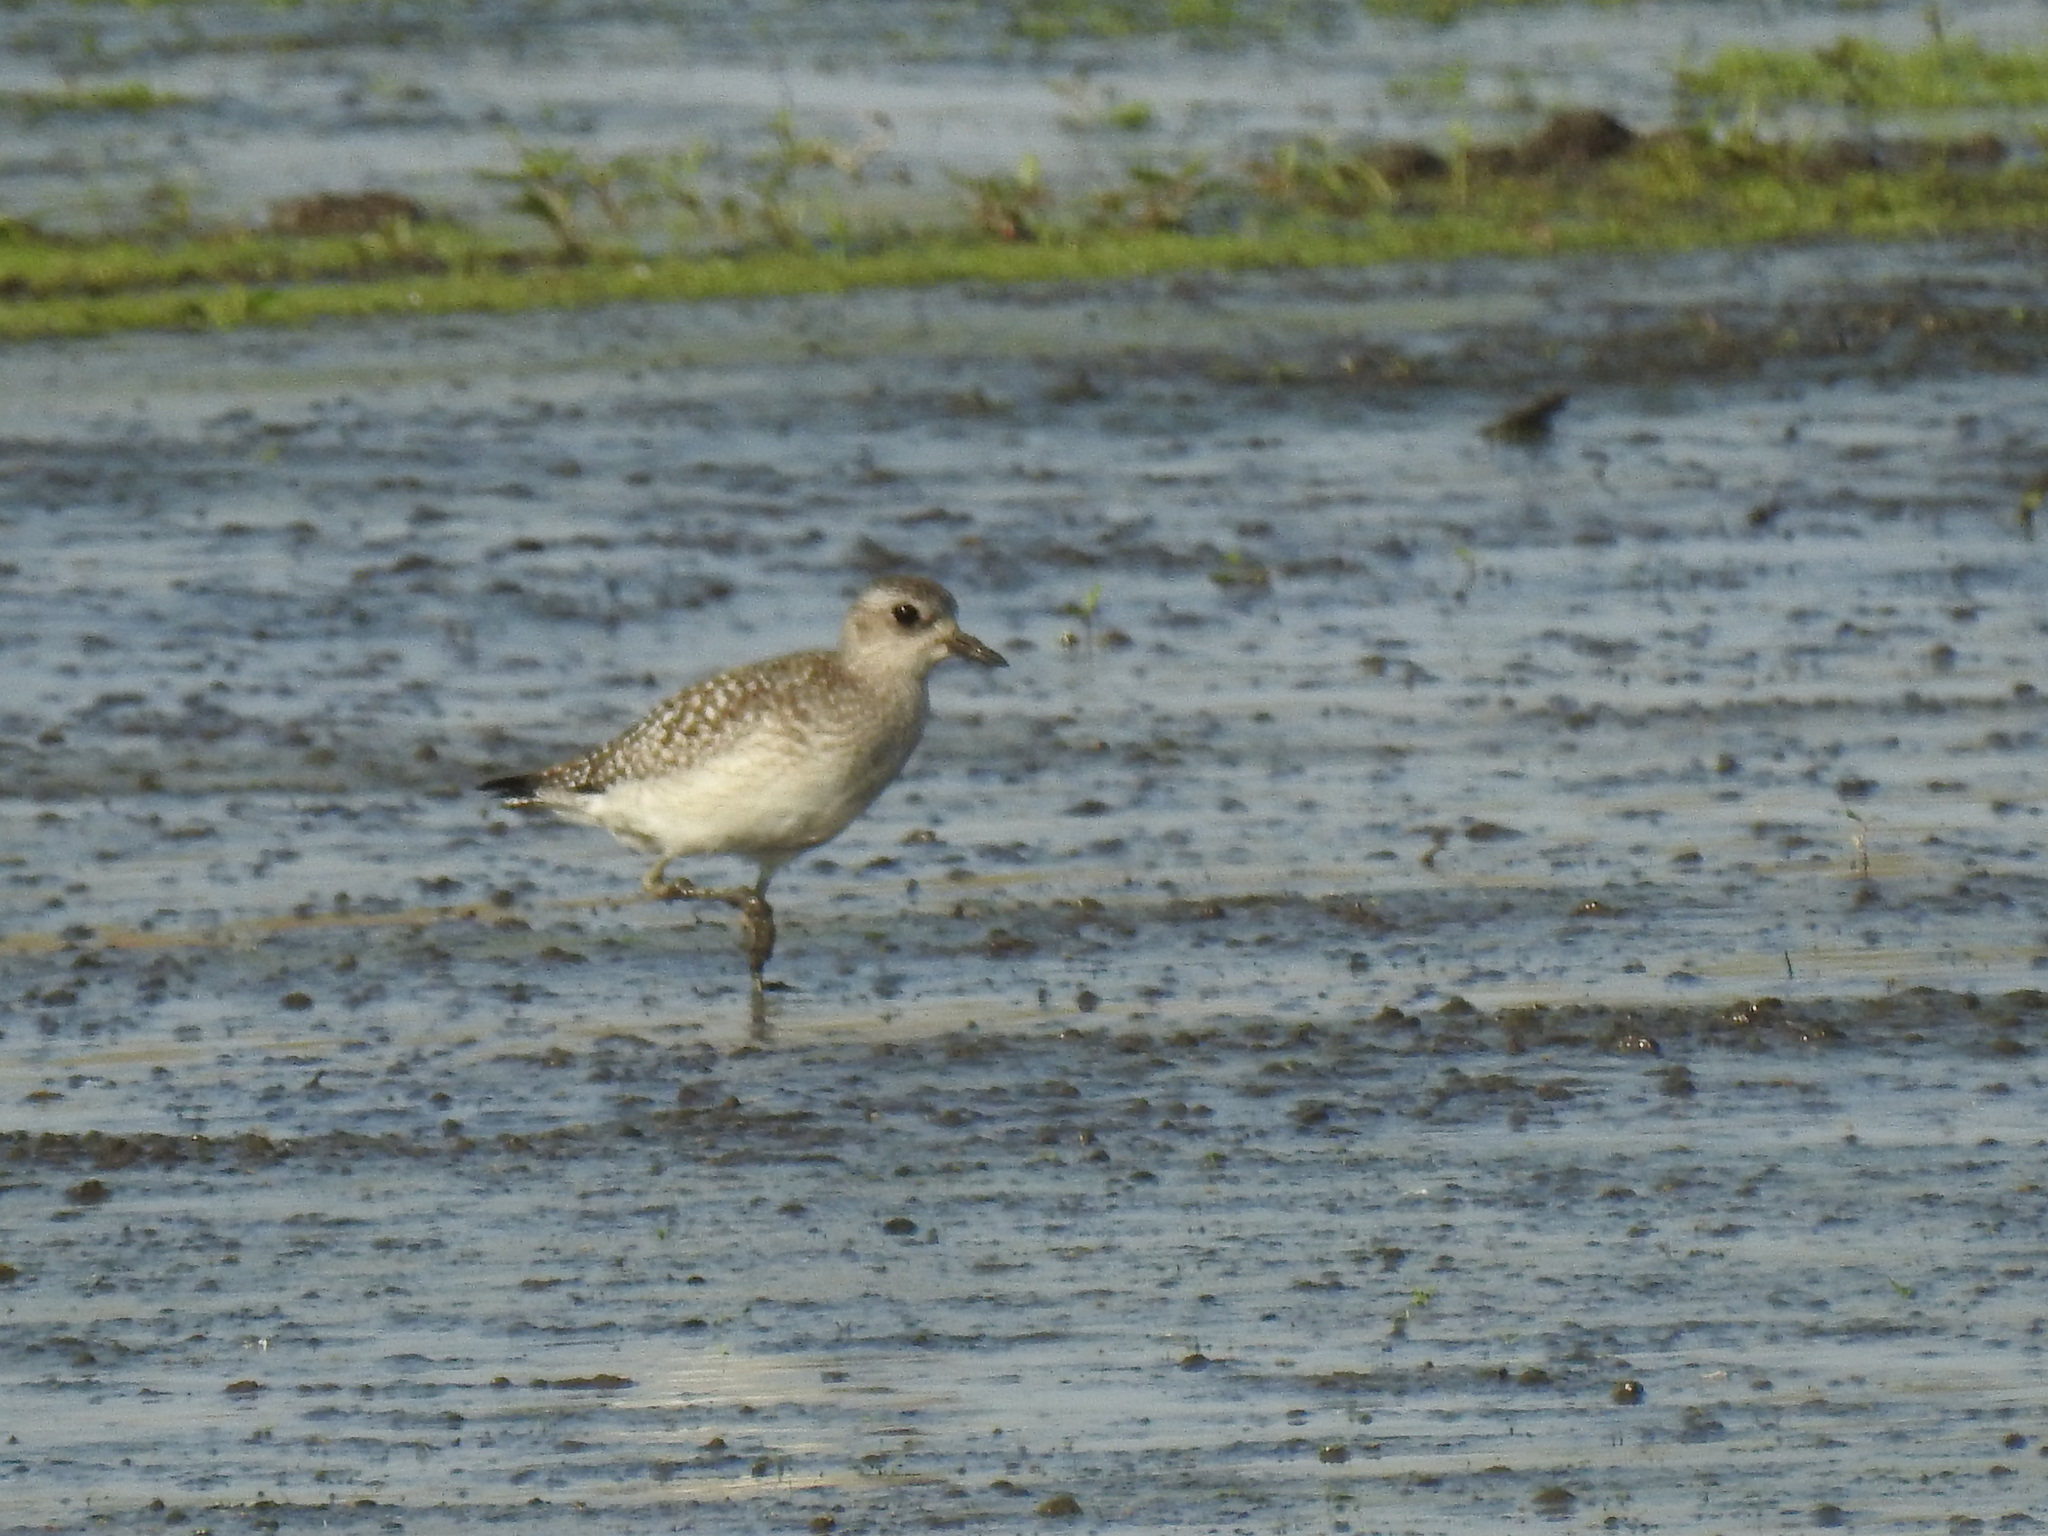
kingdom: Animalia
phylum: Chordata
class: Aves
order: Charadriiformes
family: Charadriidae
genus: Pluvialis
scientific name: Pluvialis squatarola
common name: Grey plover
